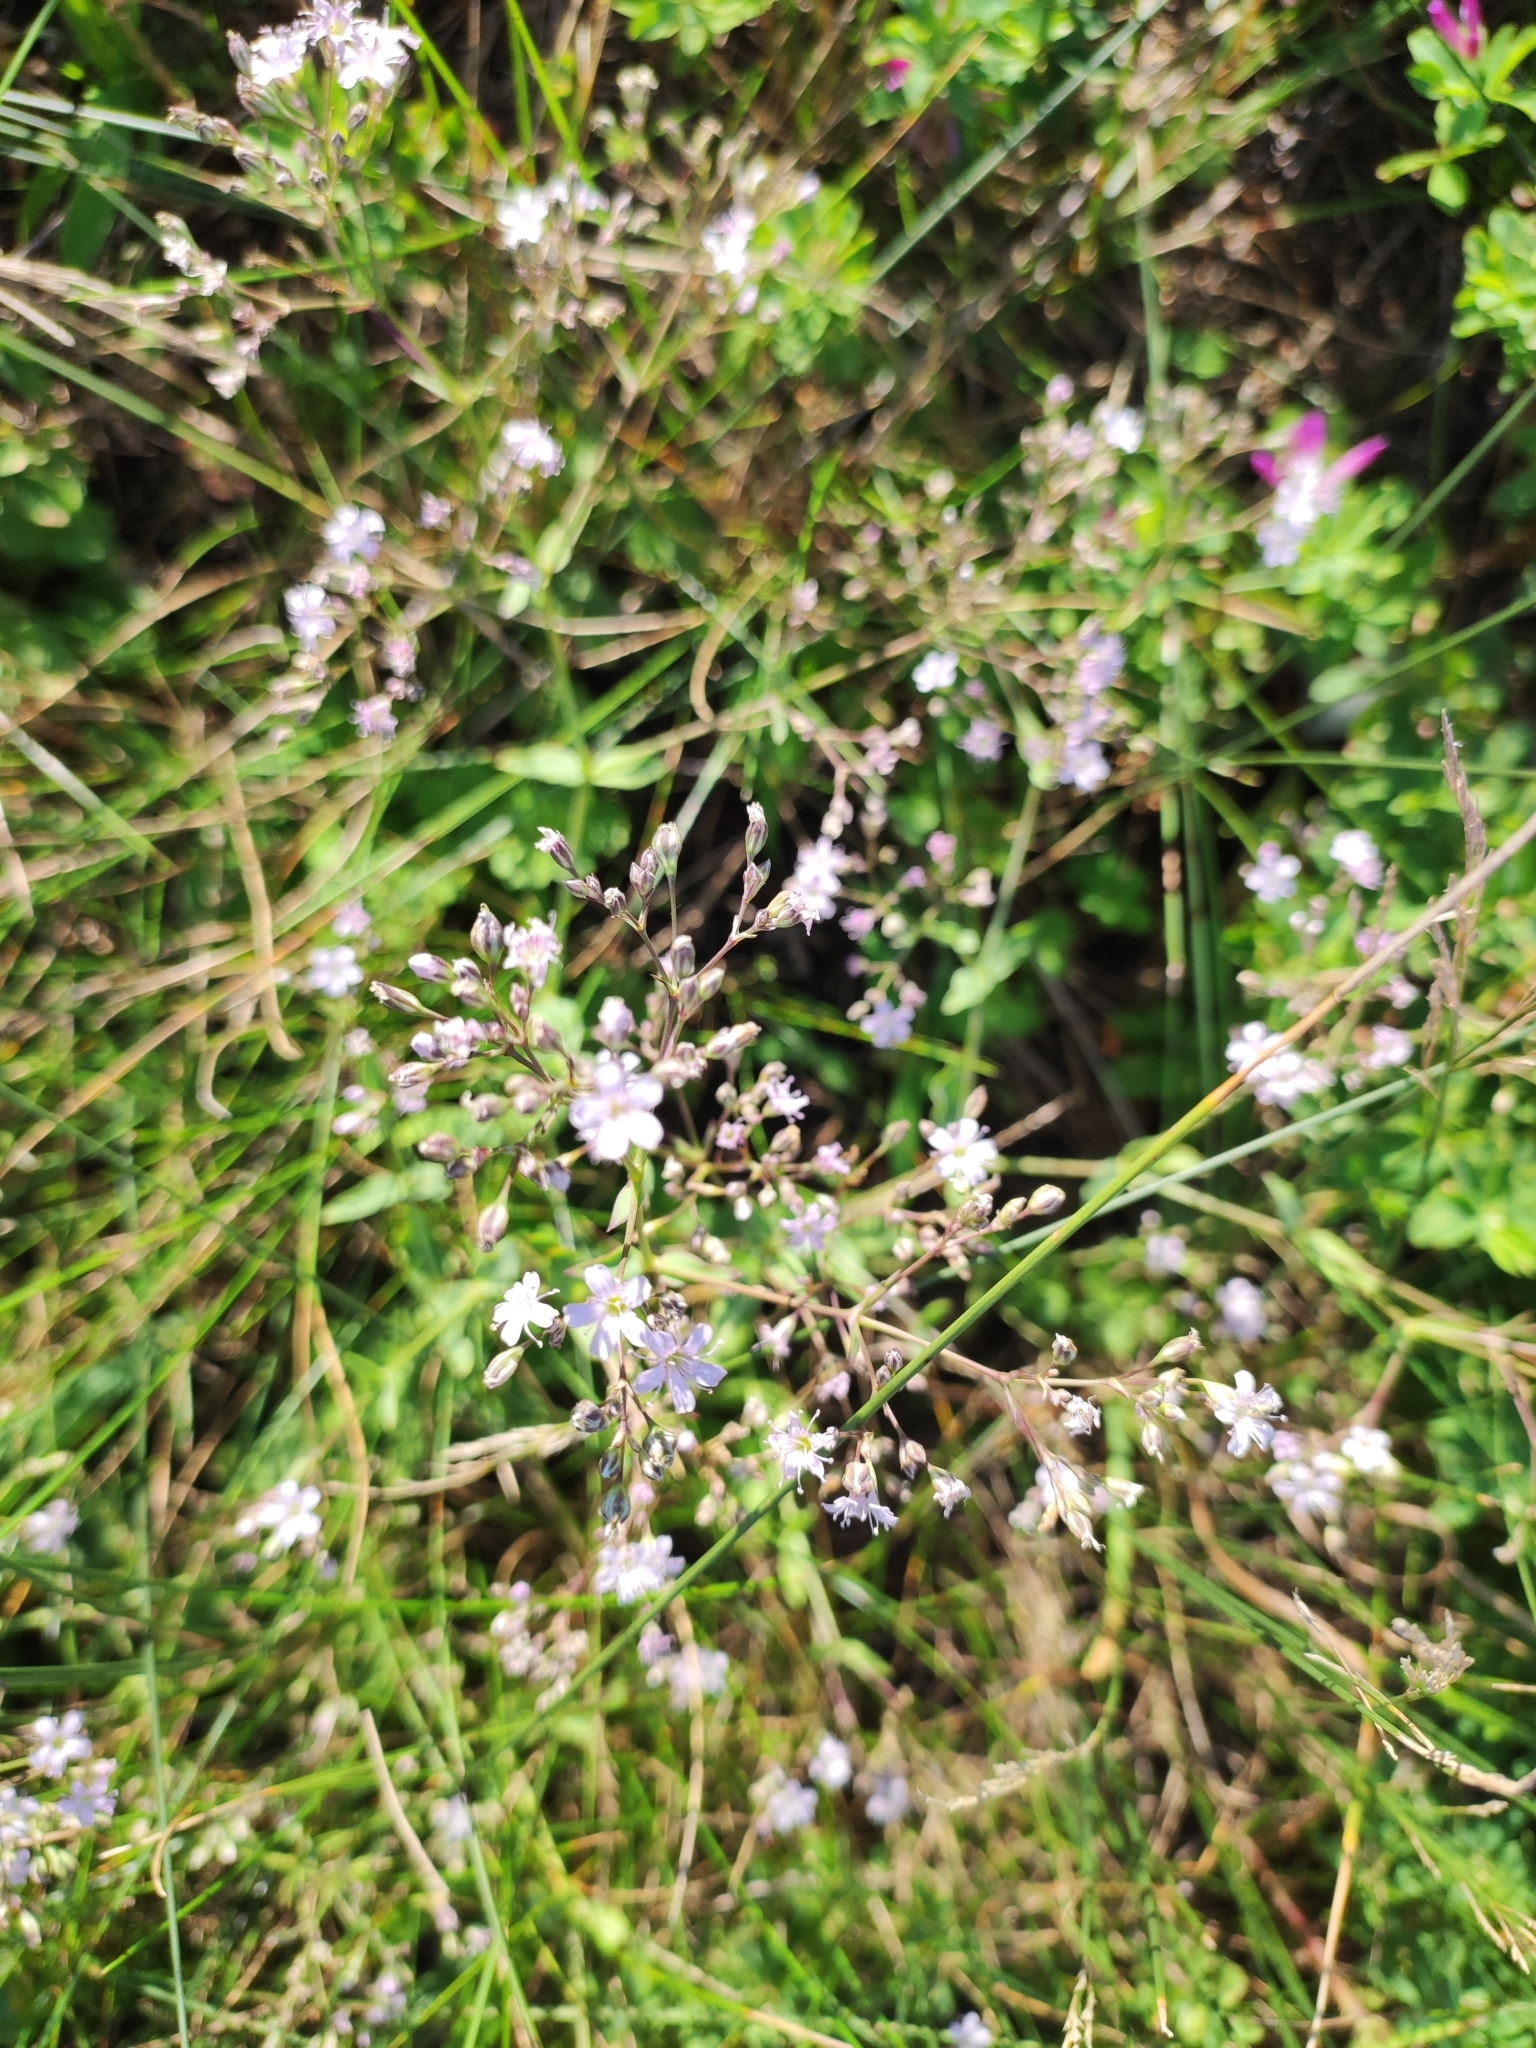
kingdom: Plantae
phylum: Tracheophyta
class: Magnoliopsida
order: Caryophyllales
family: Caryophyllaceae
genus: Gypsophila
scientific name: Gypsophila pacifica
